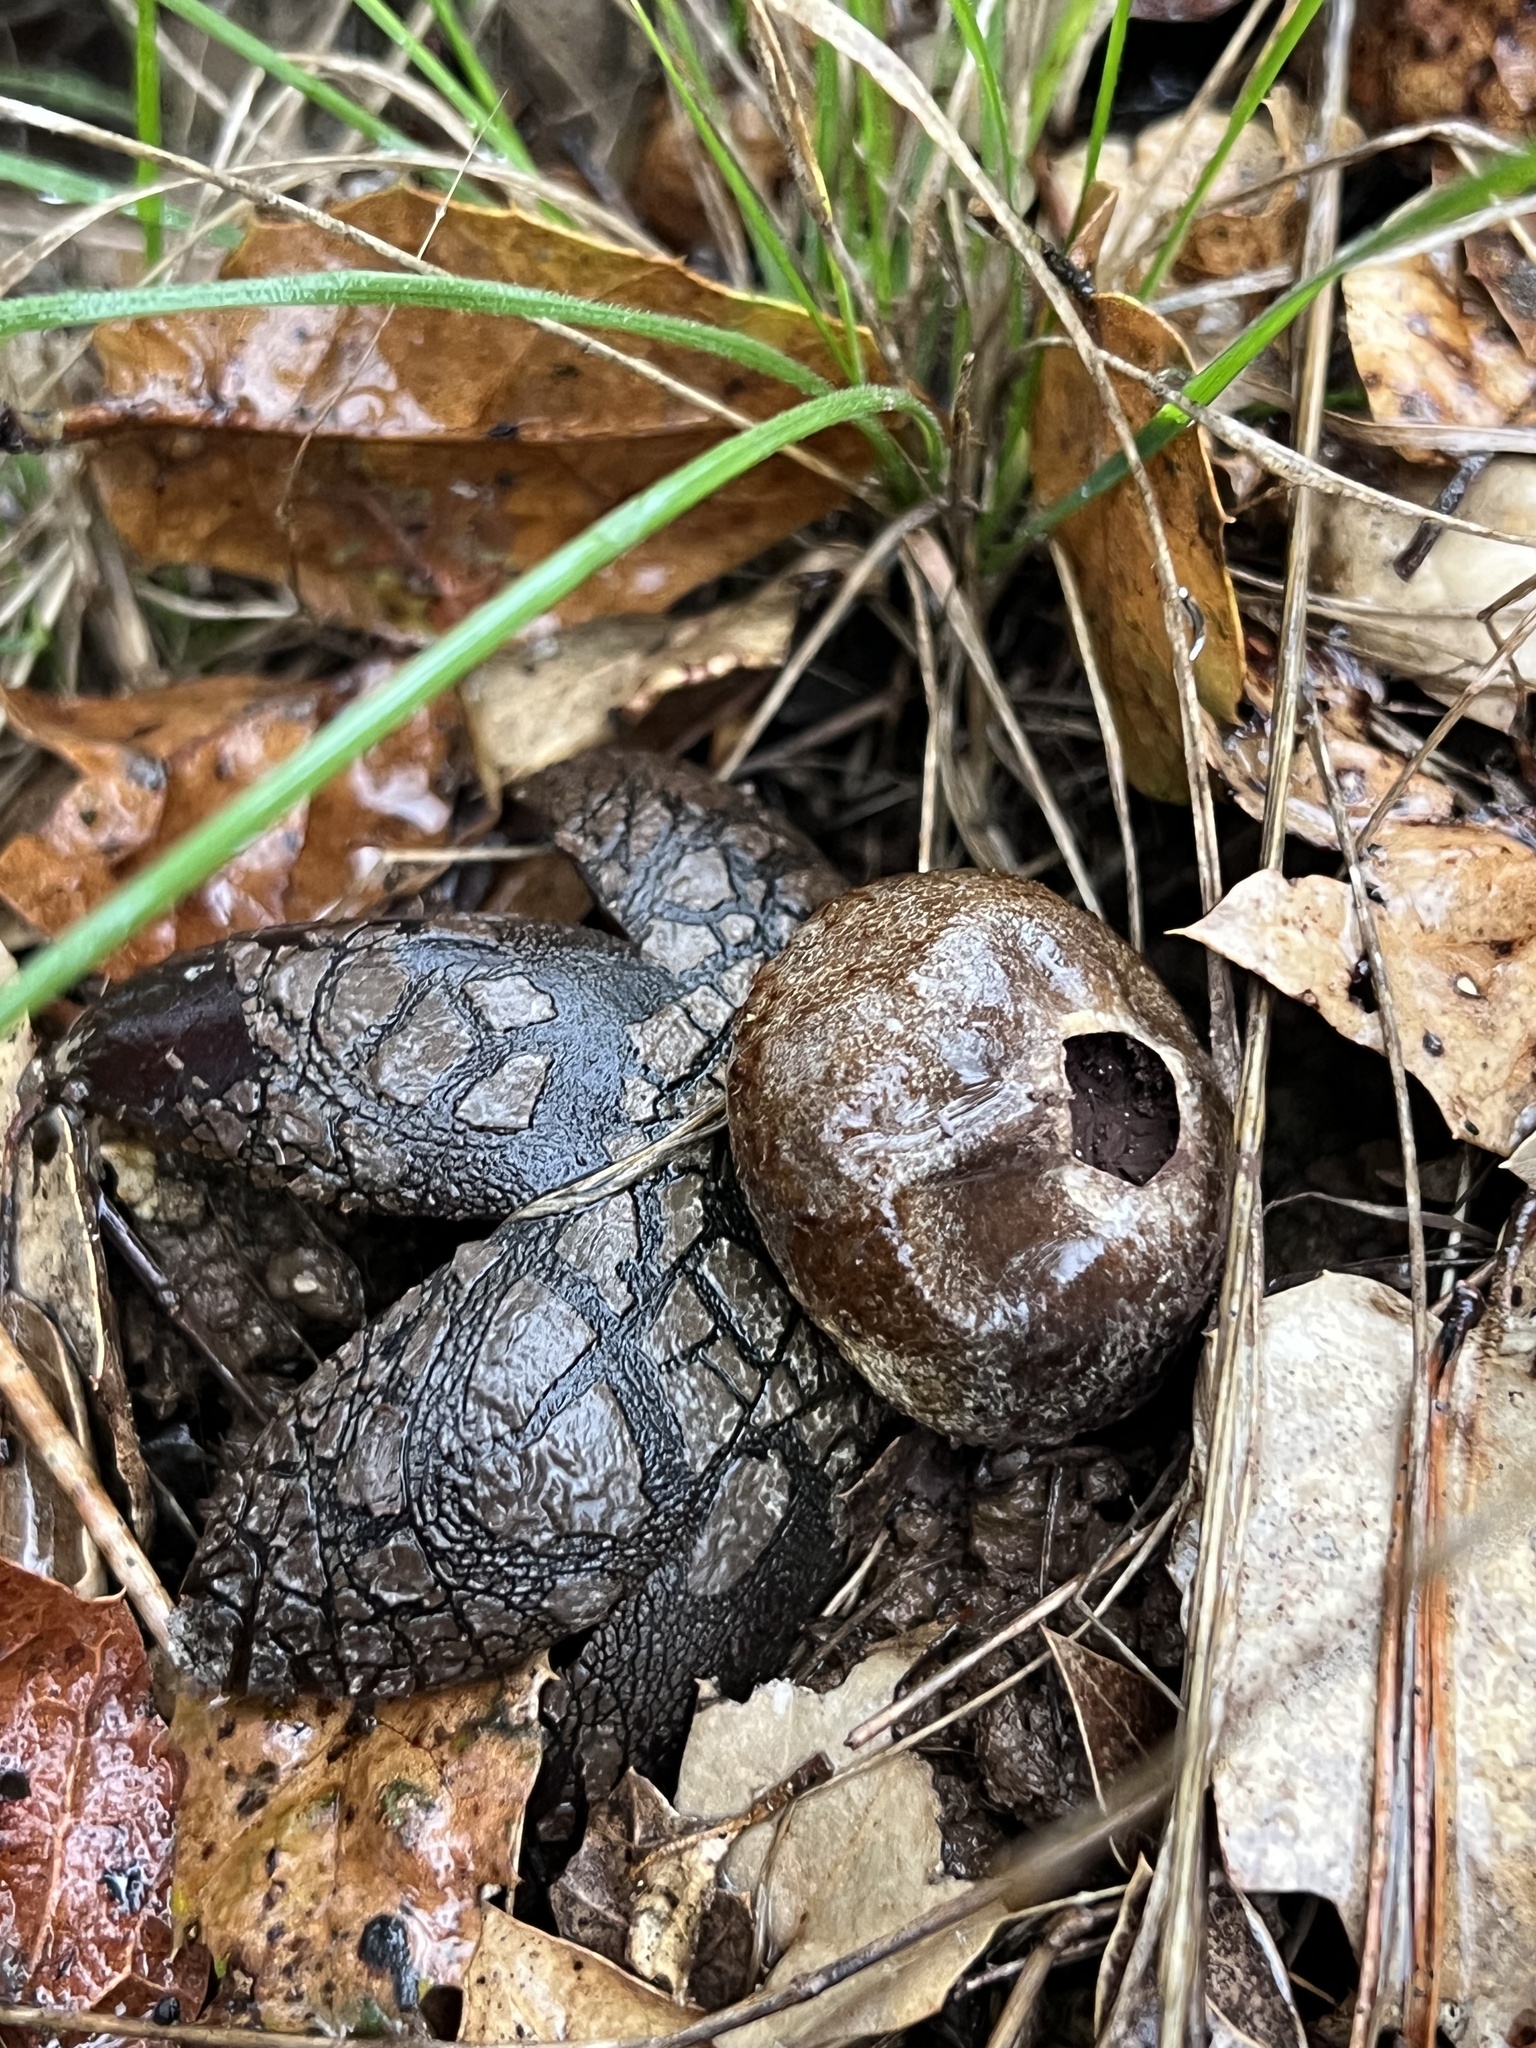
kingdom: Fungi
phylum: Basidiomycota
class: Agaricomycetes
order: Boletales
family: Diplocystidiaceae
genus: Astraeus
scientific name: Astraeus hygrometricus
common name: Barometer earthstar
